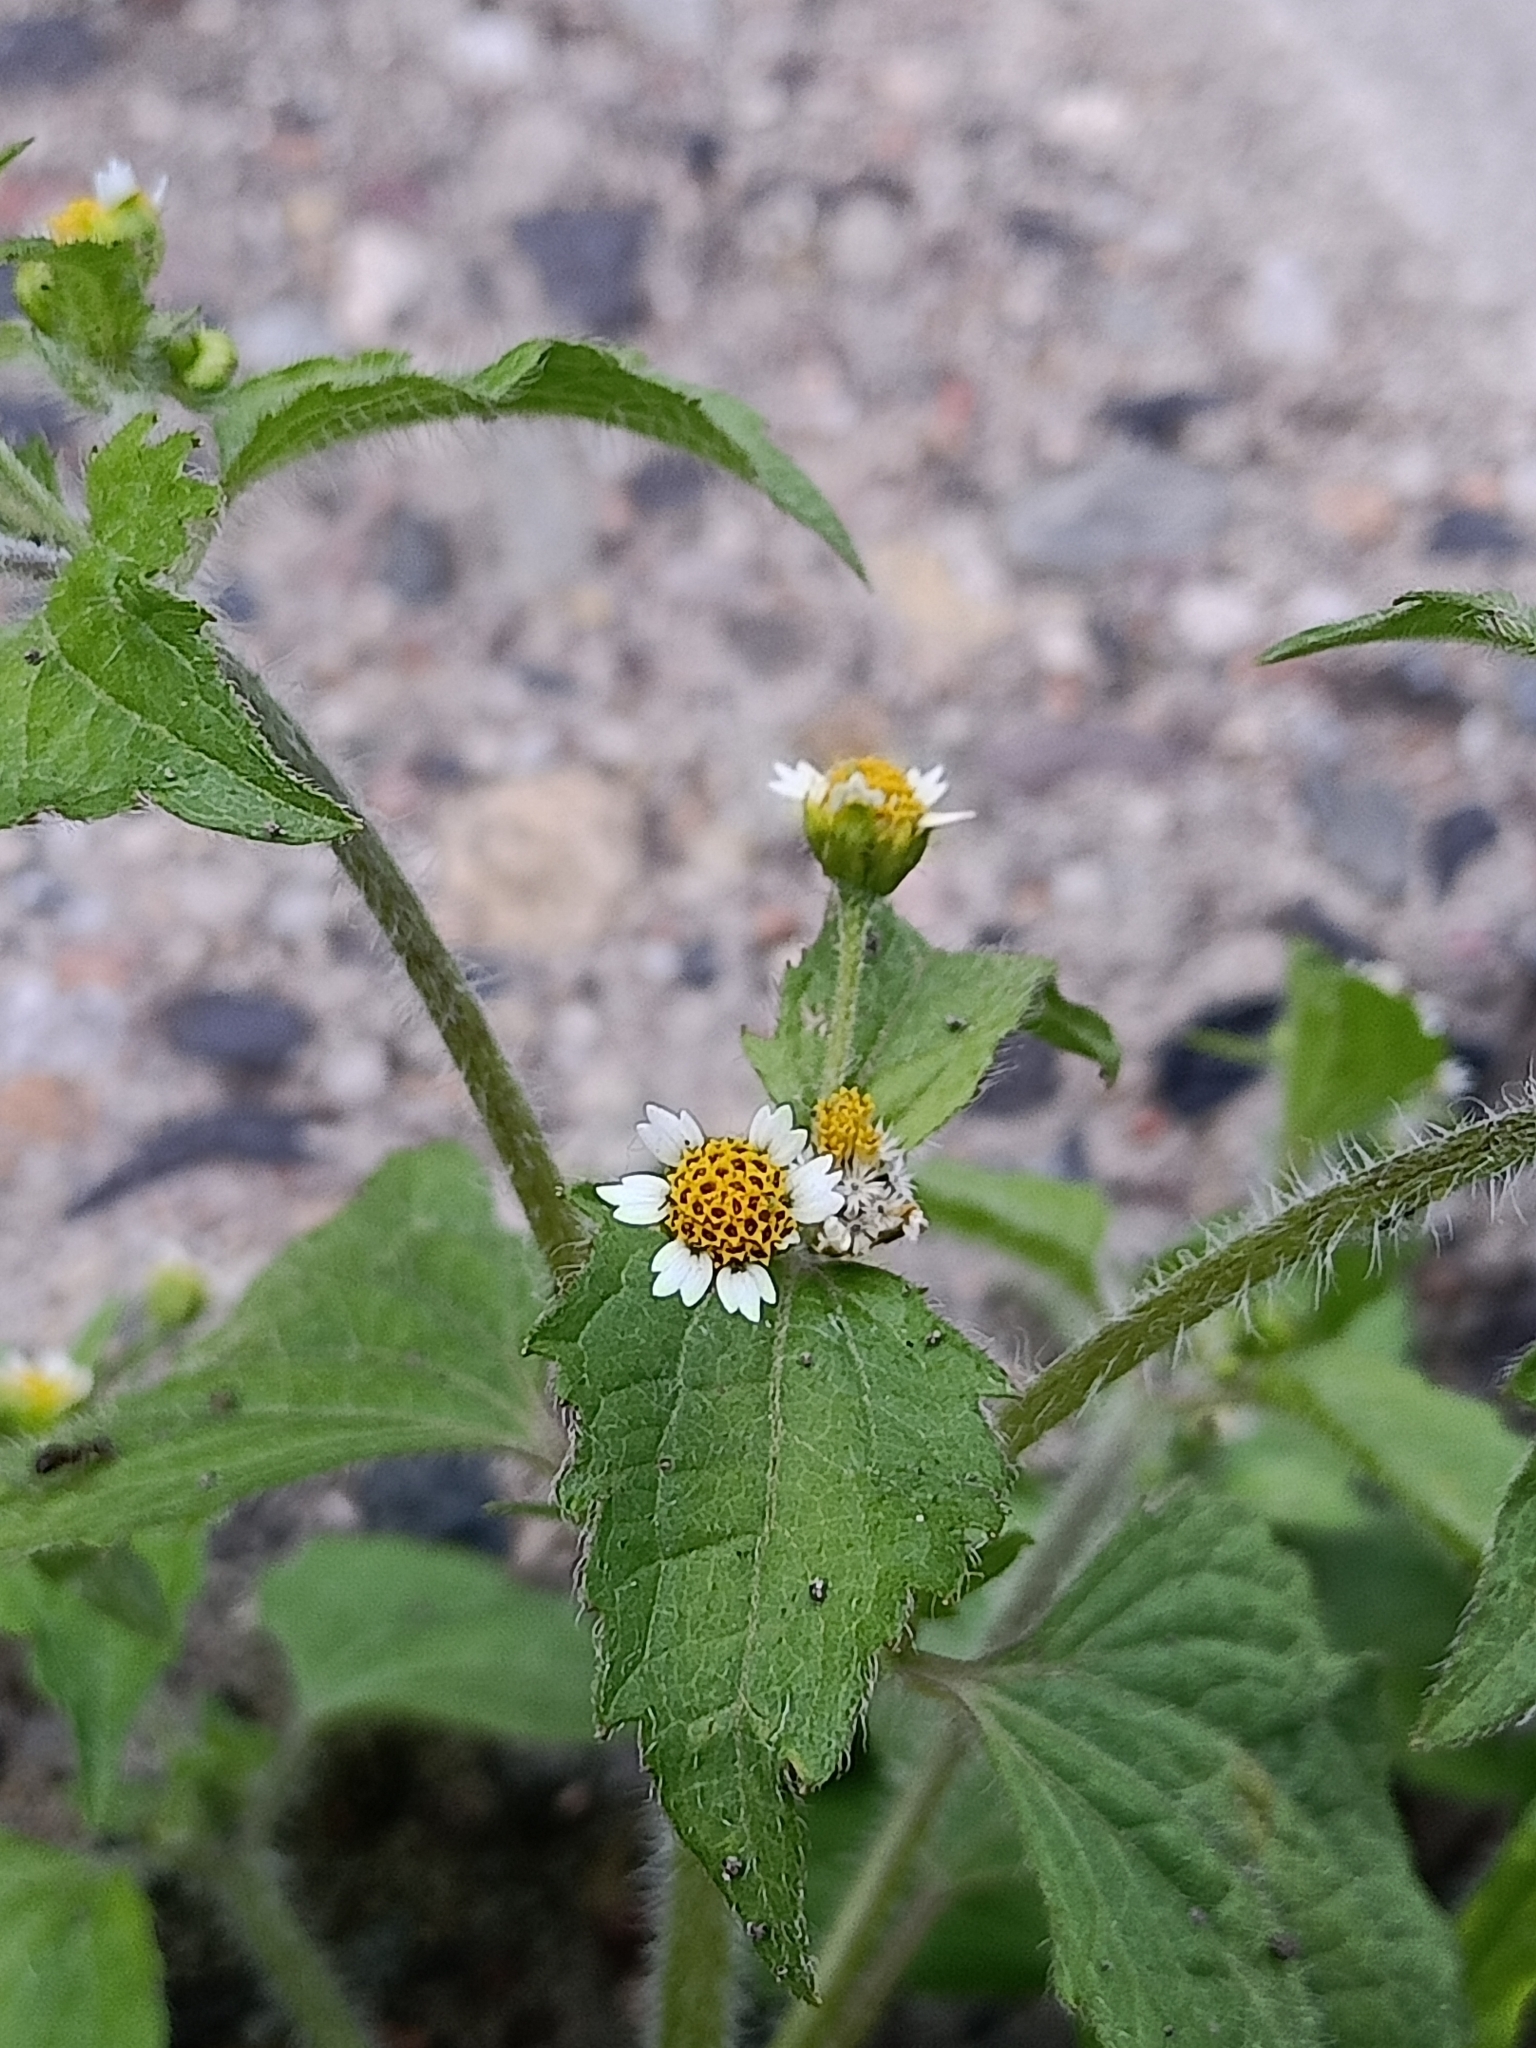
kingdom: Plantae
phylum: Tracheophyta
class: Magnoliopsida
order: Asterales
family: Asteraceae
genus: Galinsoga
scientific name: Galinsoga quadriradiata
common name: Shaggy soldier
